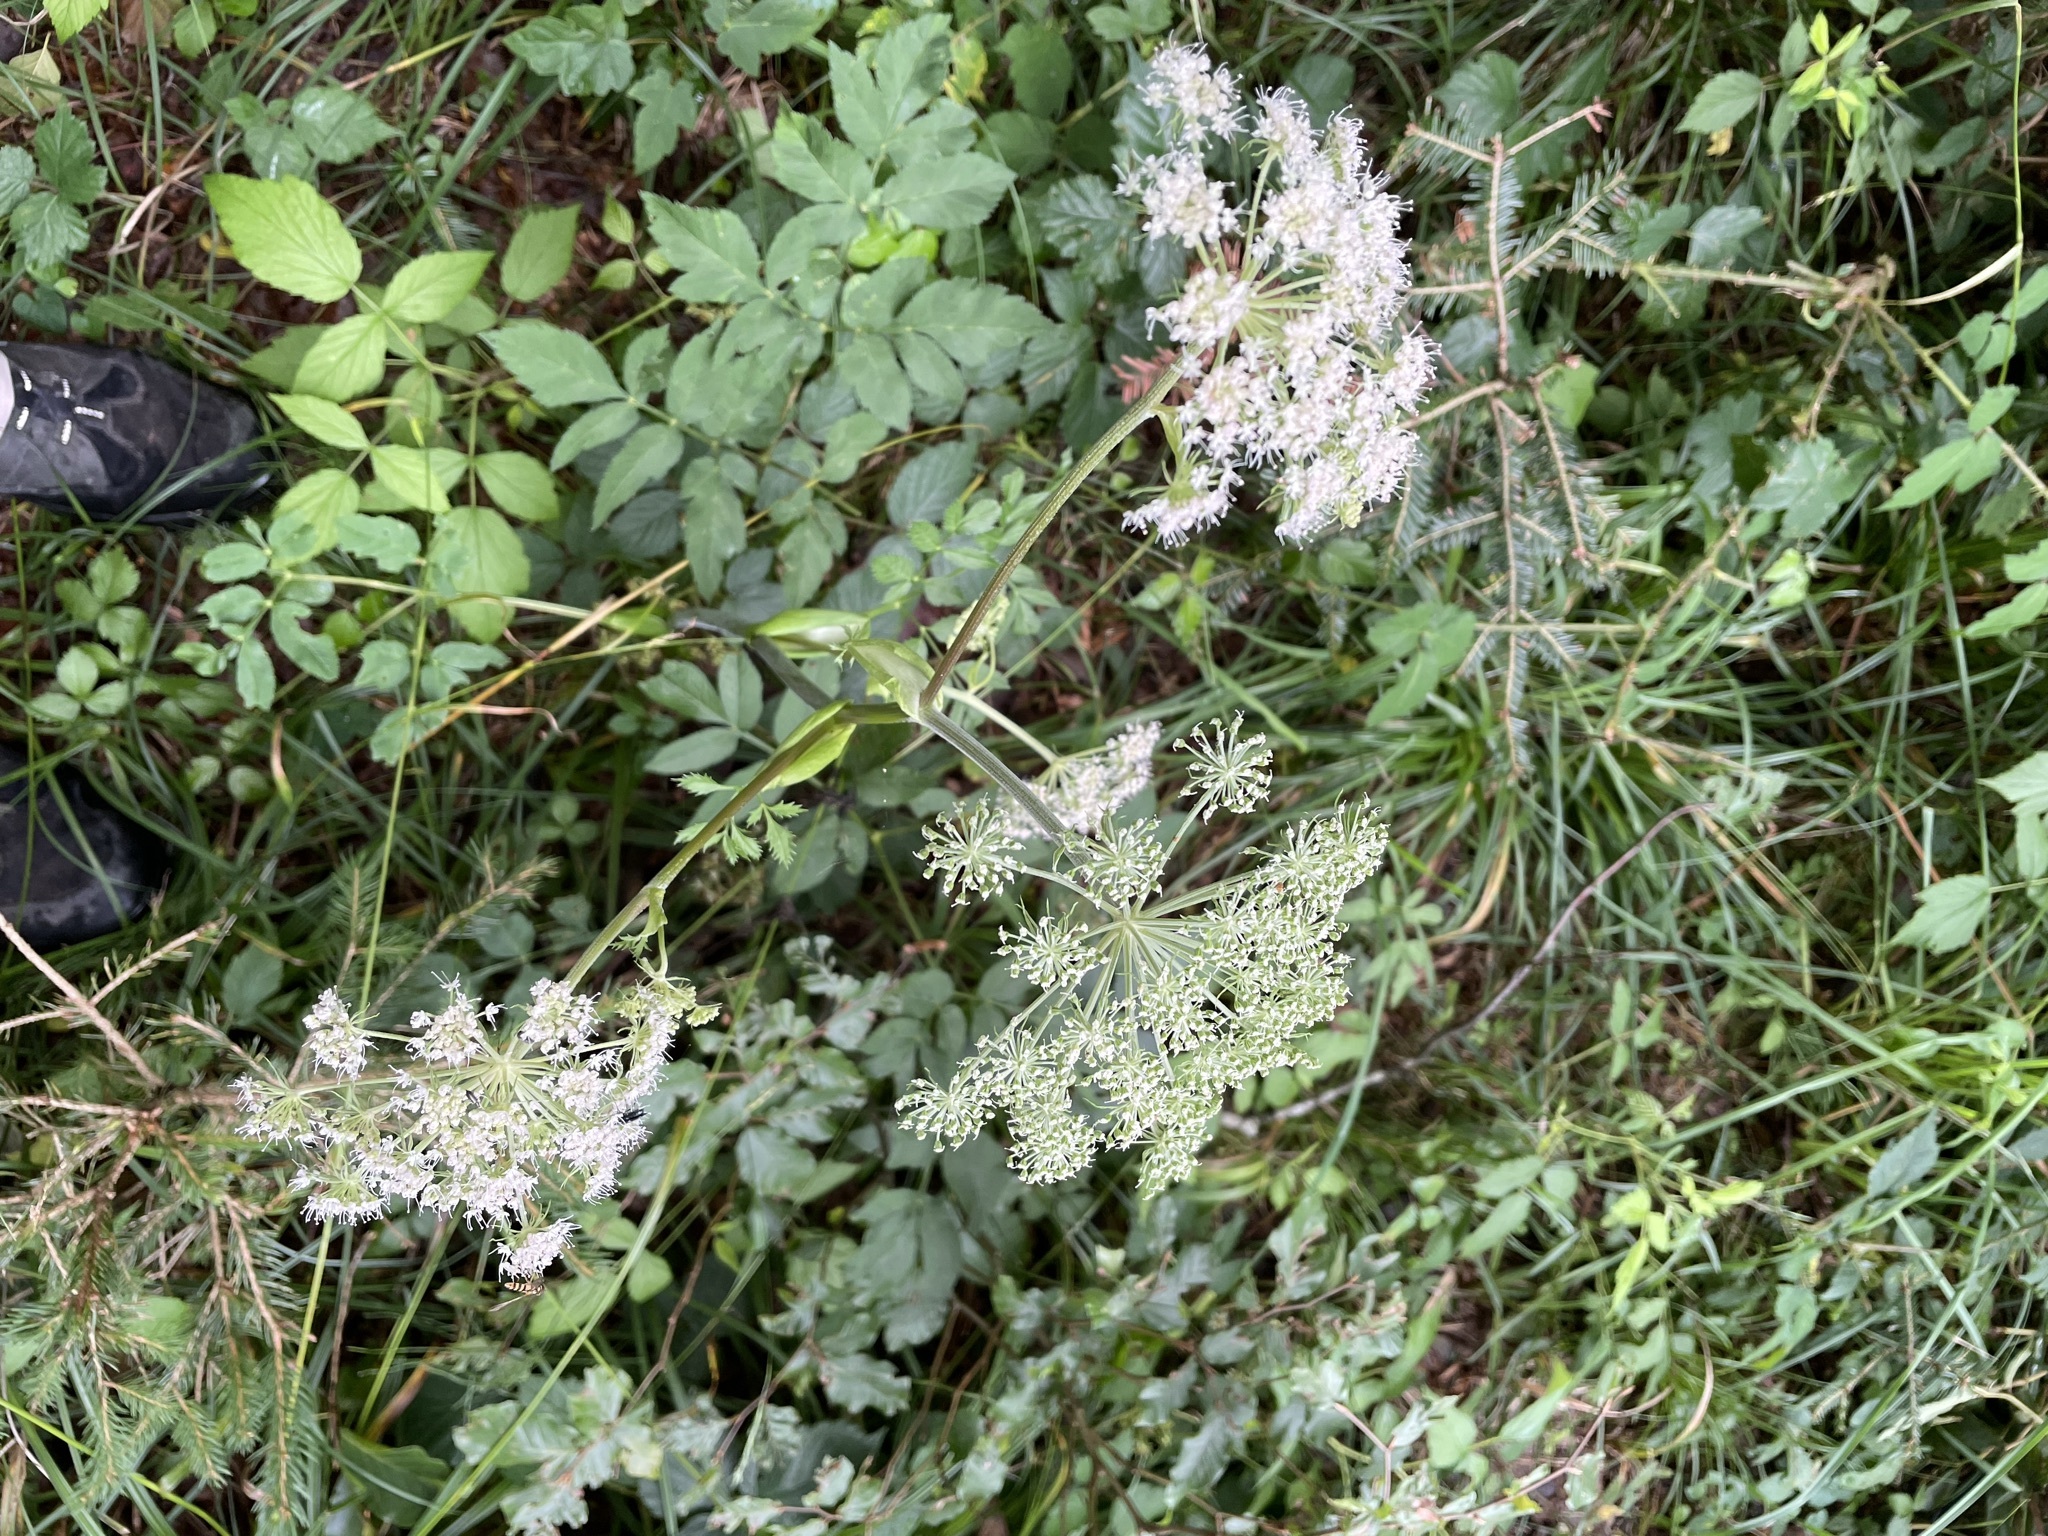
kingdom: Plantae
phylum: Tracheophyta
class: Magnoliopsida
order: Apiales
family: Apiaceae
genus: Angelica
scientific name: Angelica sylvestris
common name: Wild angelica
